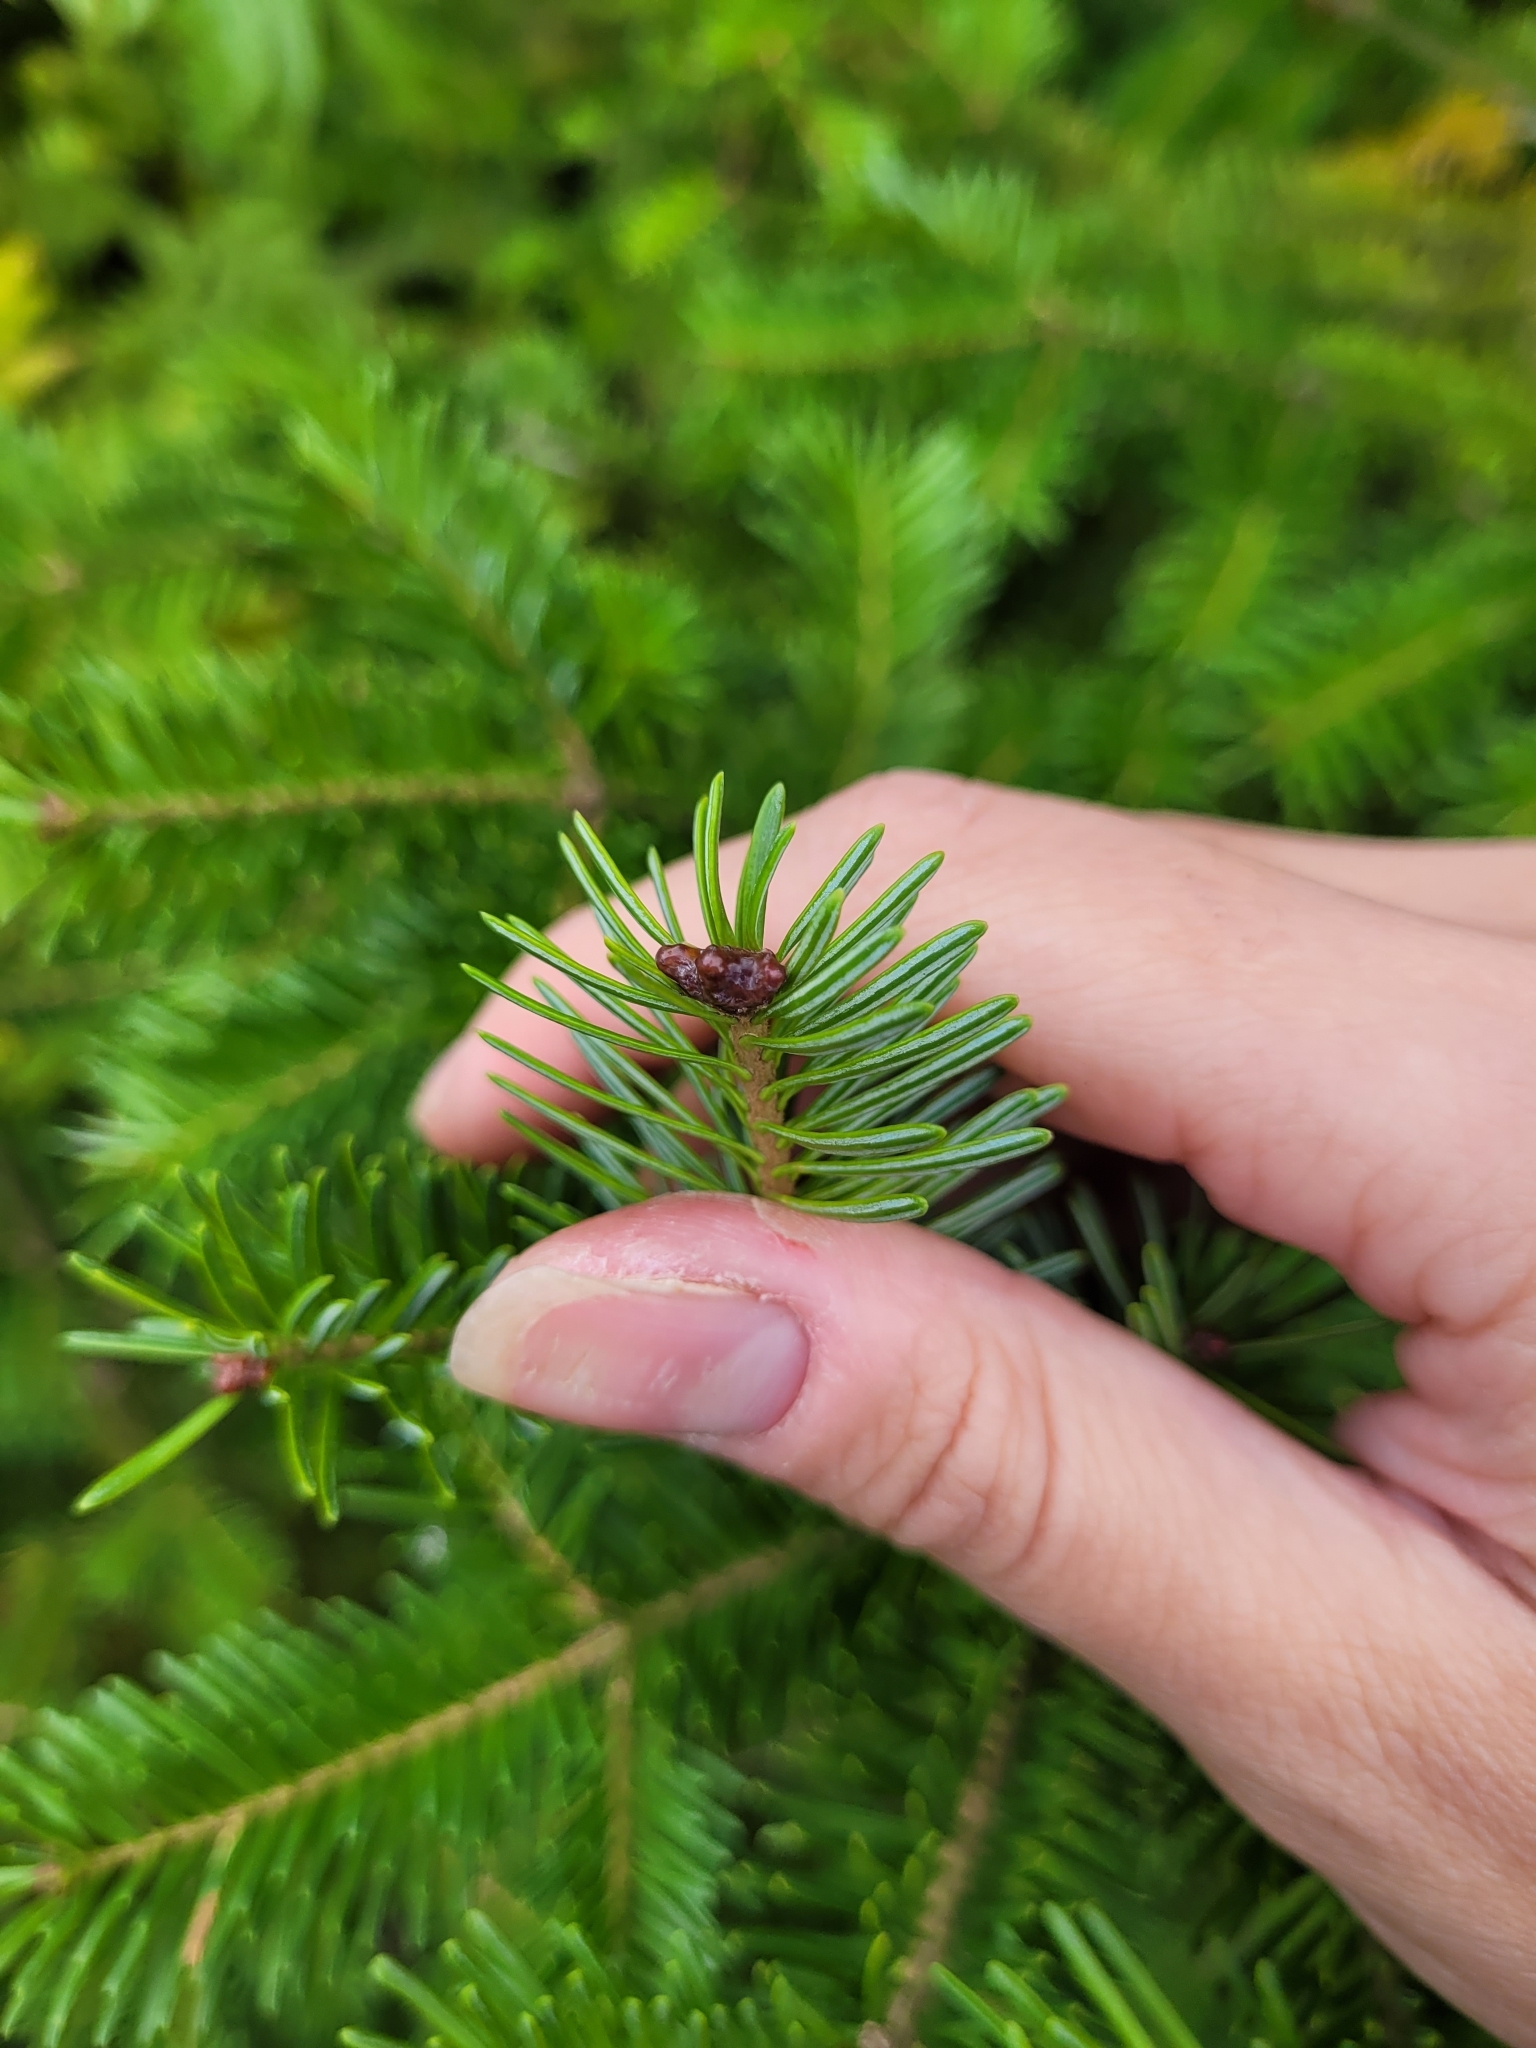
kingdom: Plantae
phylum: Tracheophyta
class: Pinopsida
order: Pinales
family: Pinaceae
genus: Abies
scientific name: Abies balsamea
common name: Balsam fir
